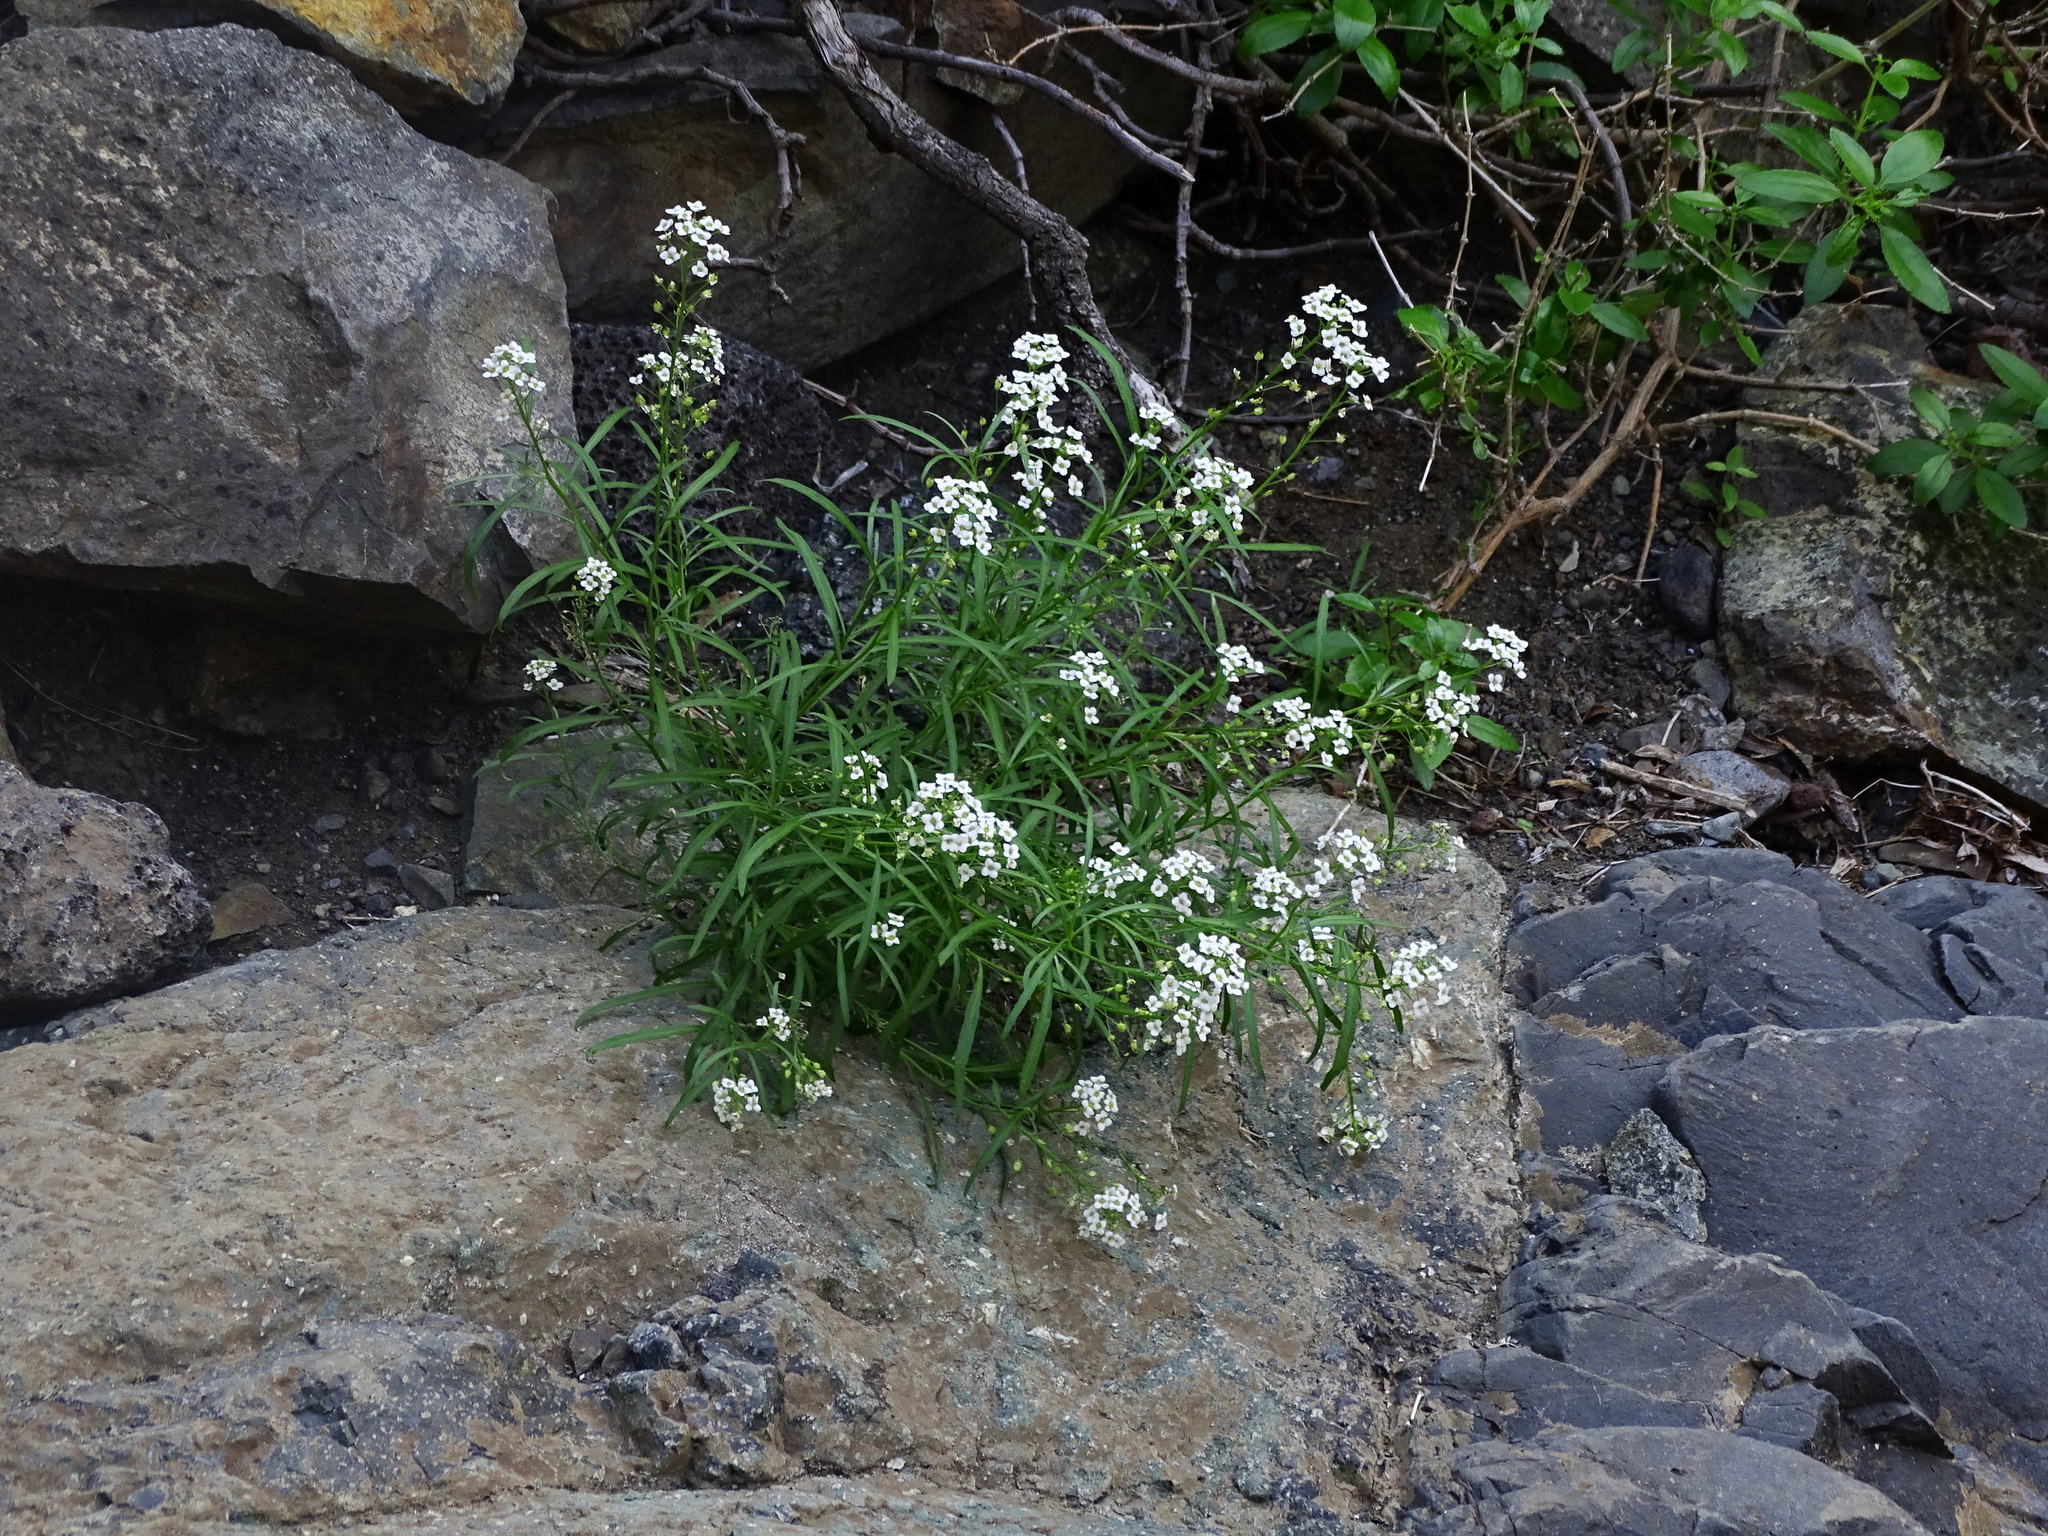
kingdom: Plantae
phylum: Tracheophyta
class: Magnoliopsida
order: Brassicales
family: Brassicaceae
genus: Lobularia
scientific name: Lobularia canariensis
